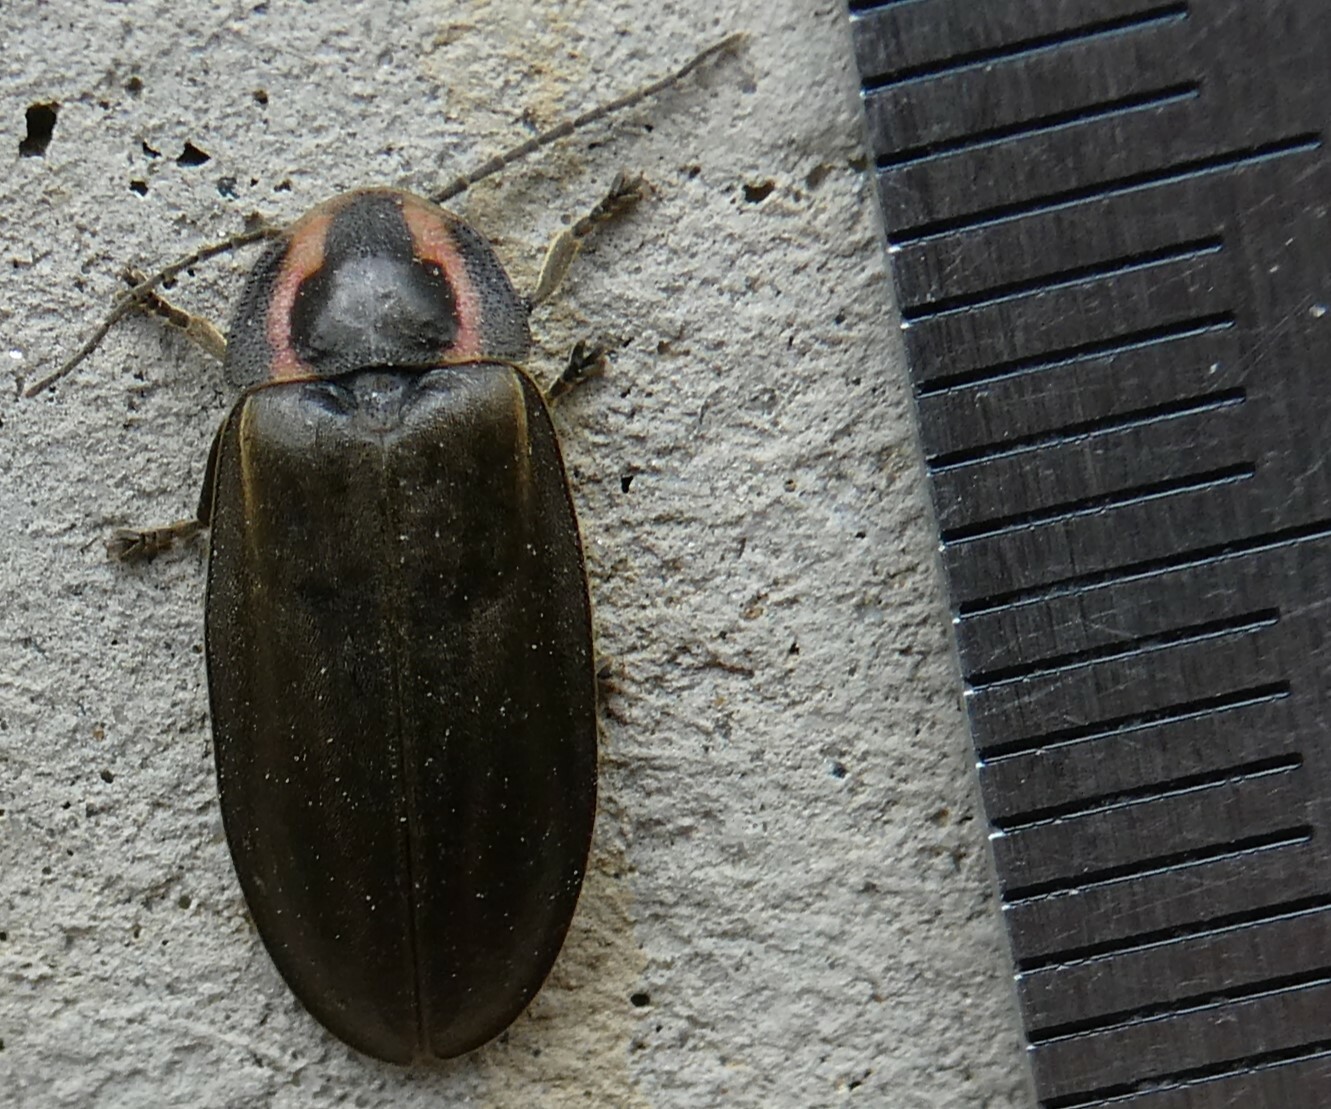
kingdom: Animalia
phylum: Arthropoda
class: Insecta
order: Coleoptera
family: Lampyridae
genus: Photinus
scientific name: Photinus corrusca
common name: Winter firefly
